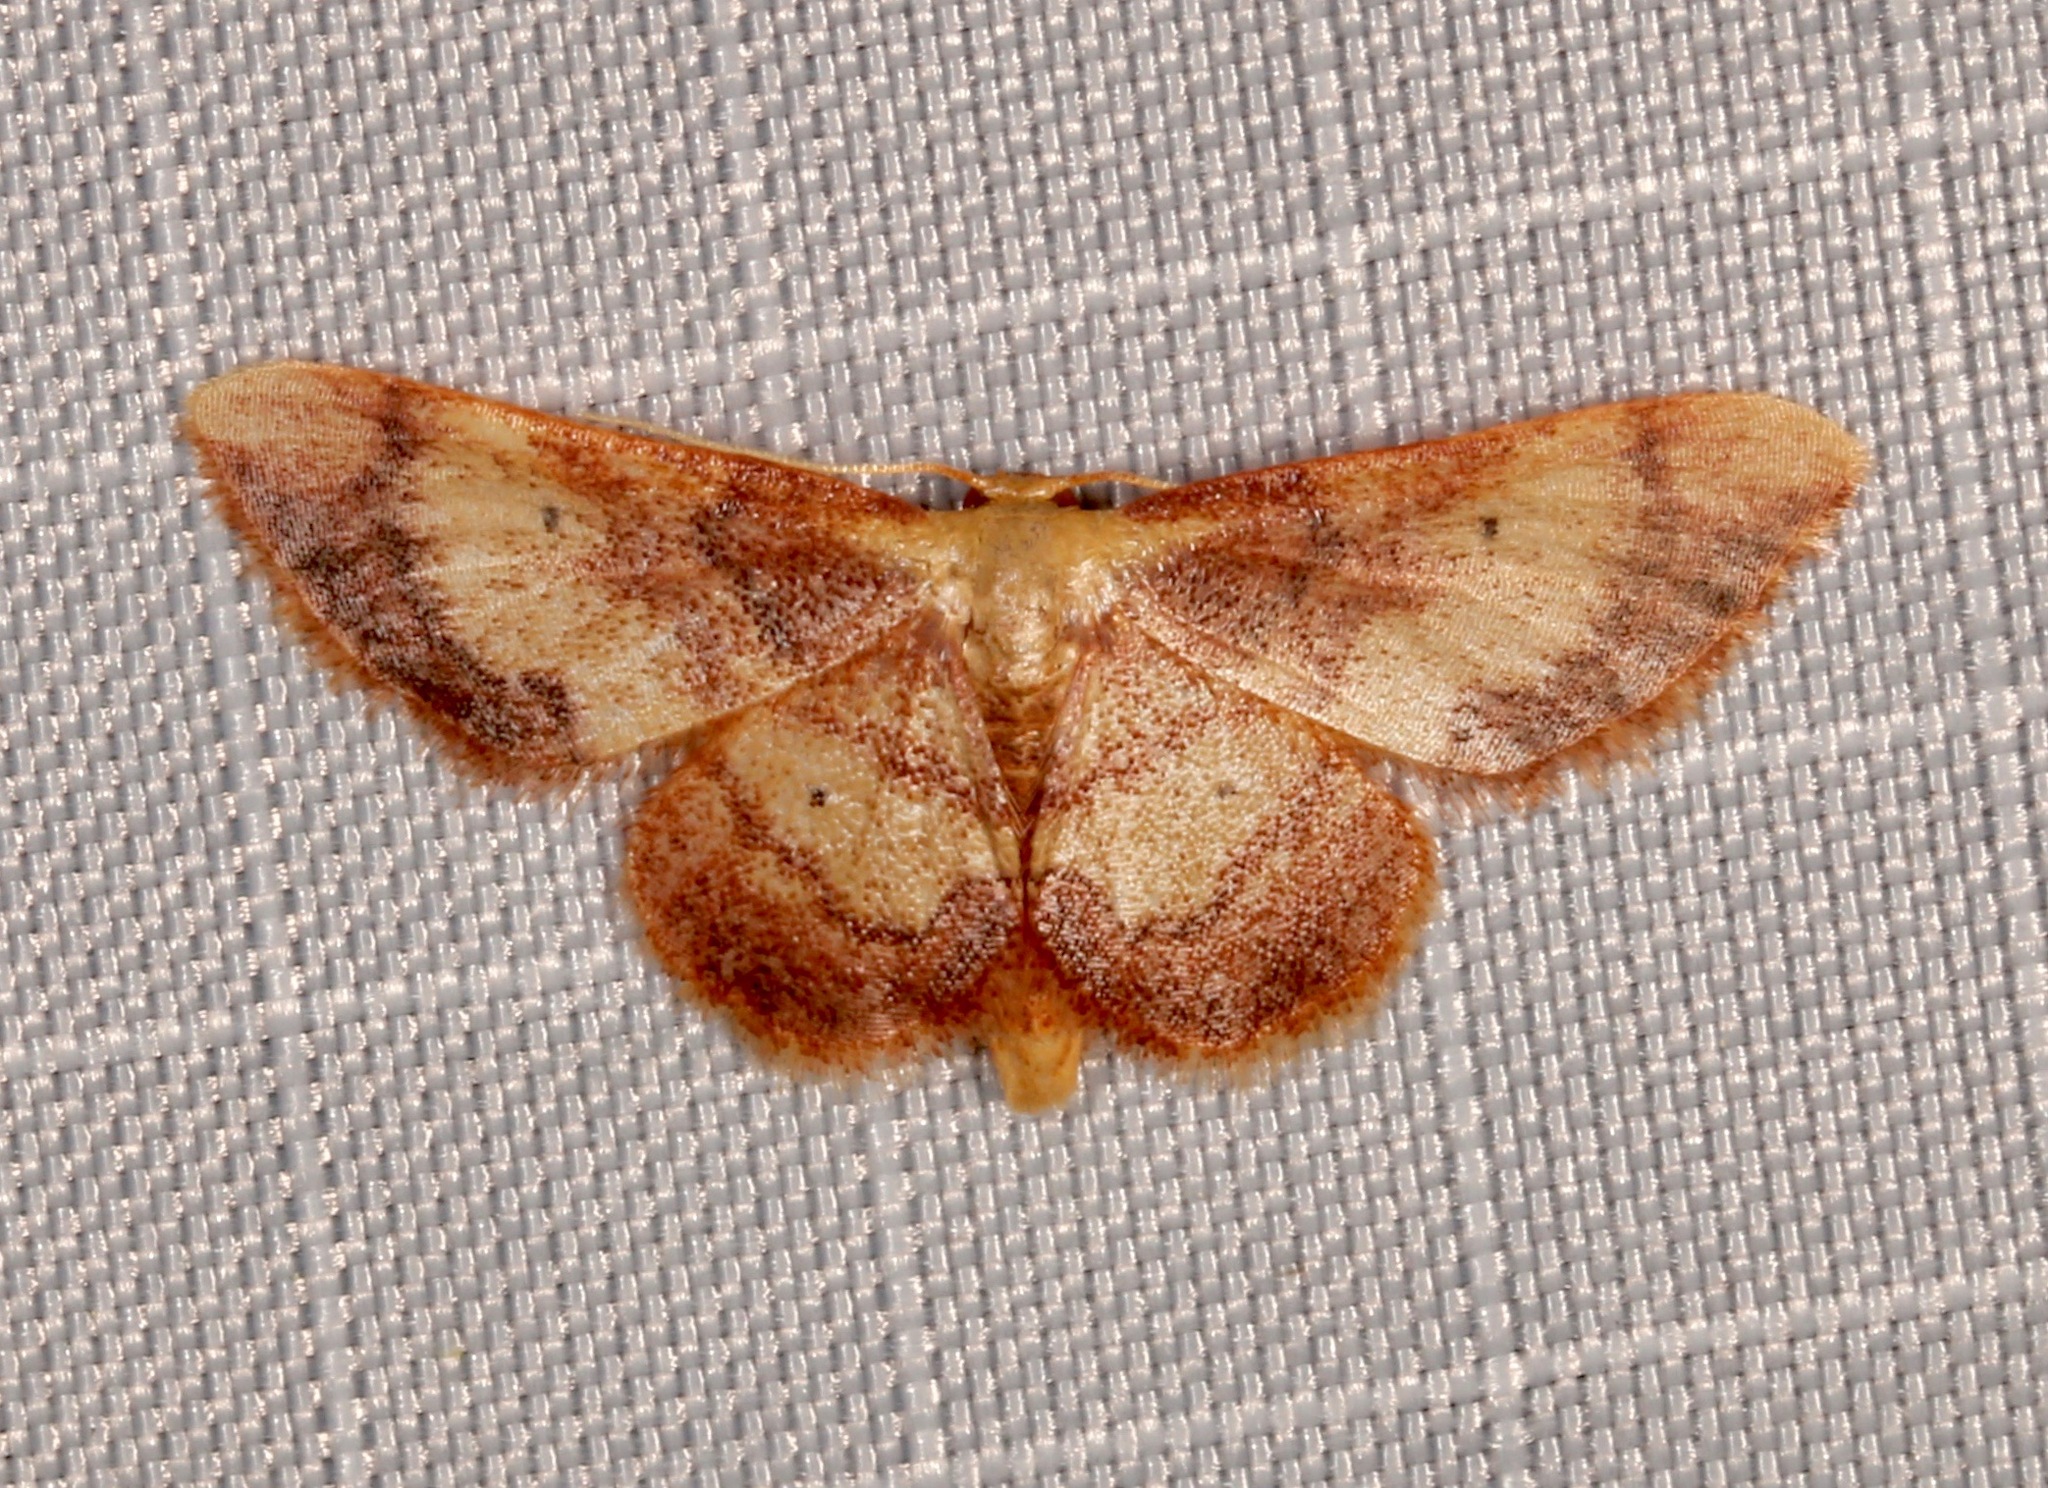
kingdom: Animalia
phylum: Arthropoda
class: Insecta
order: Lepidoptera
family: Geometridae
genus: Idaea
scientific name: Idaea demissaria
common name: Red-bordered wave
